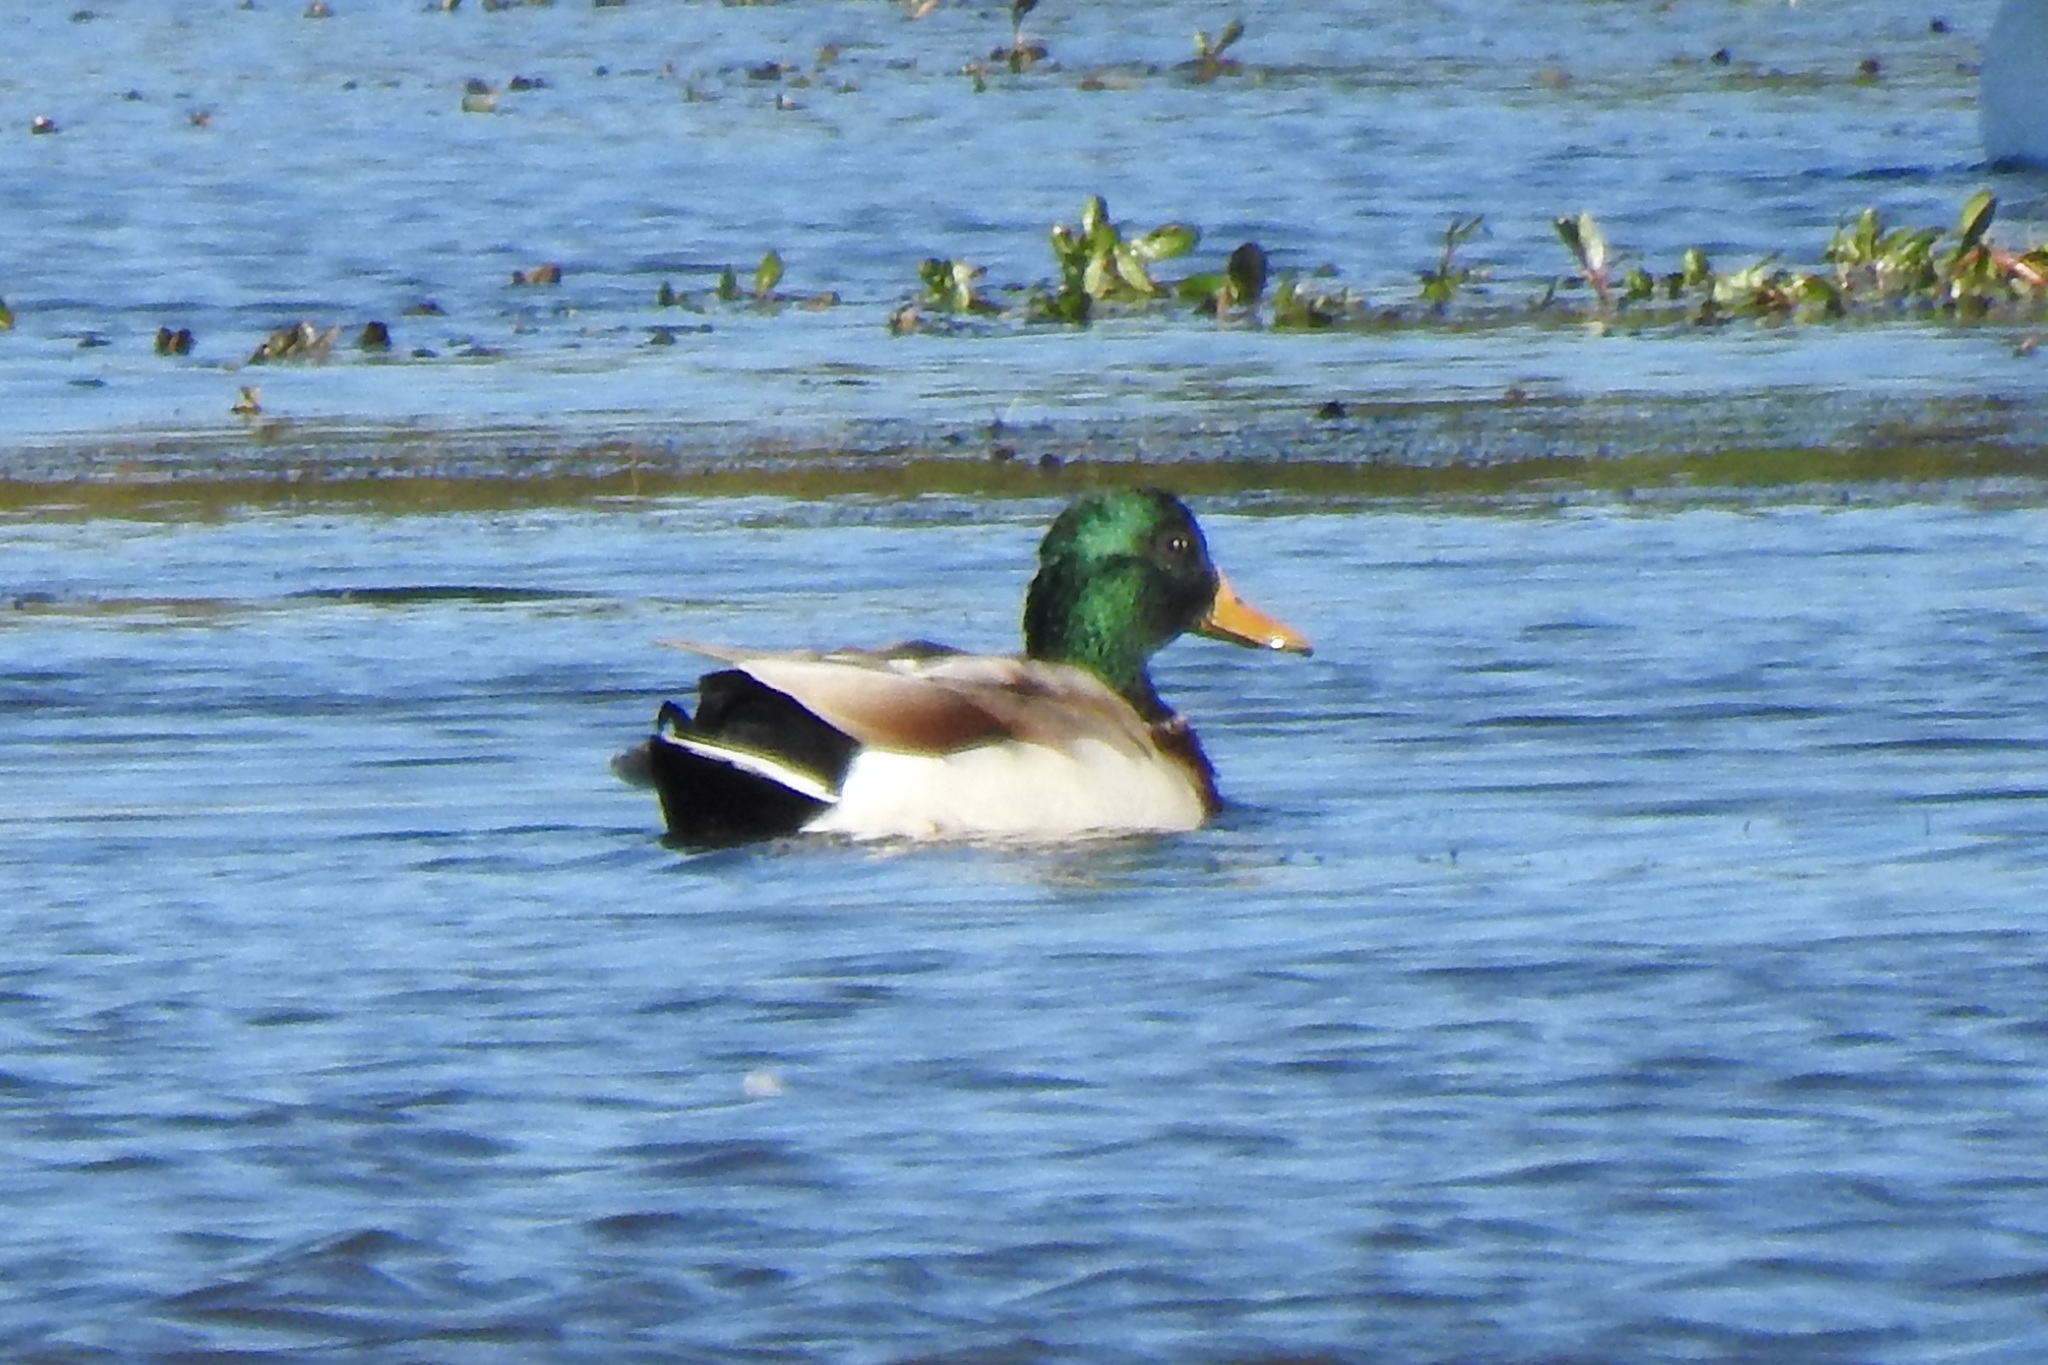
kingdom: Animalia
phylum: Chordata
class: Aves
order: Anseriformes
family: Anatidae
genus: Anas
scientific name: Anas platyrhynchos
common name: Mallard
